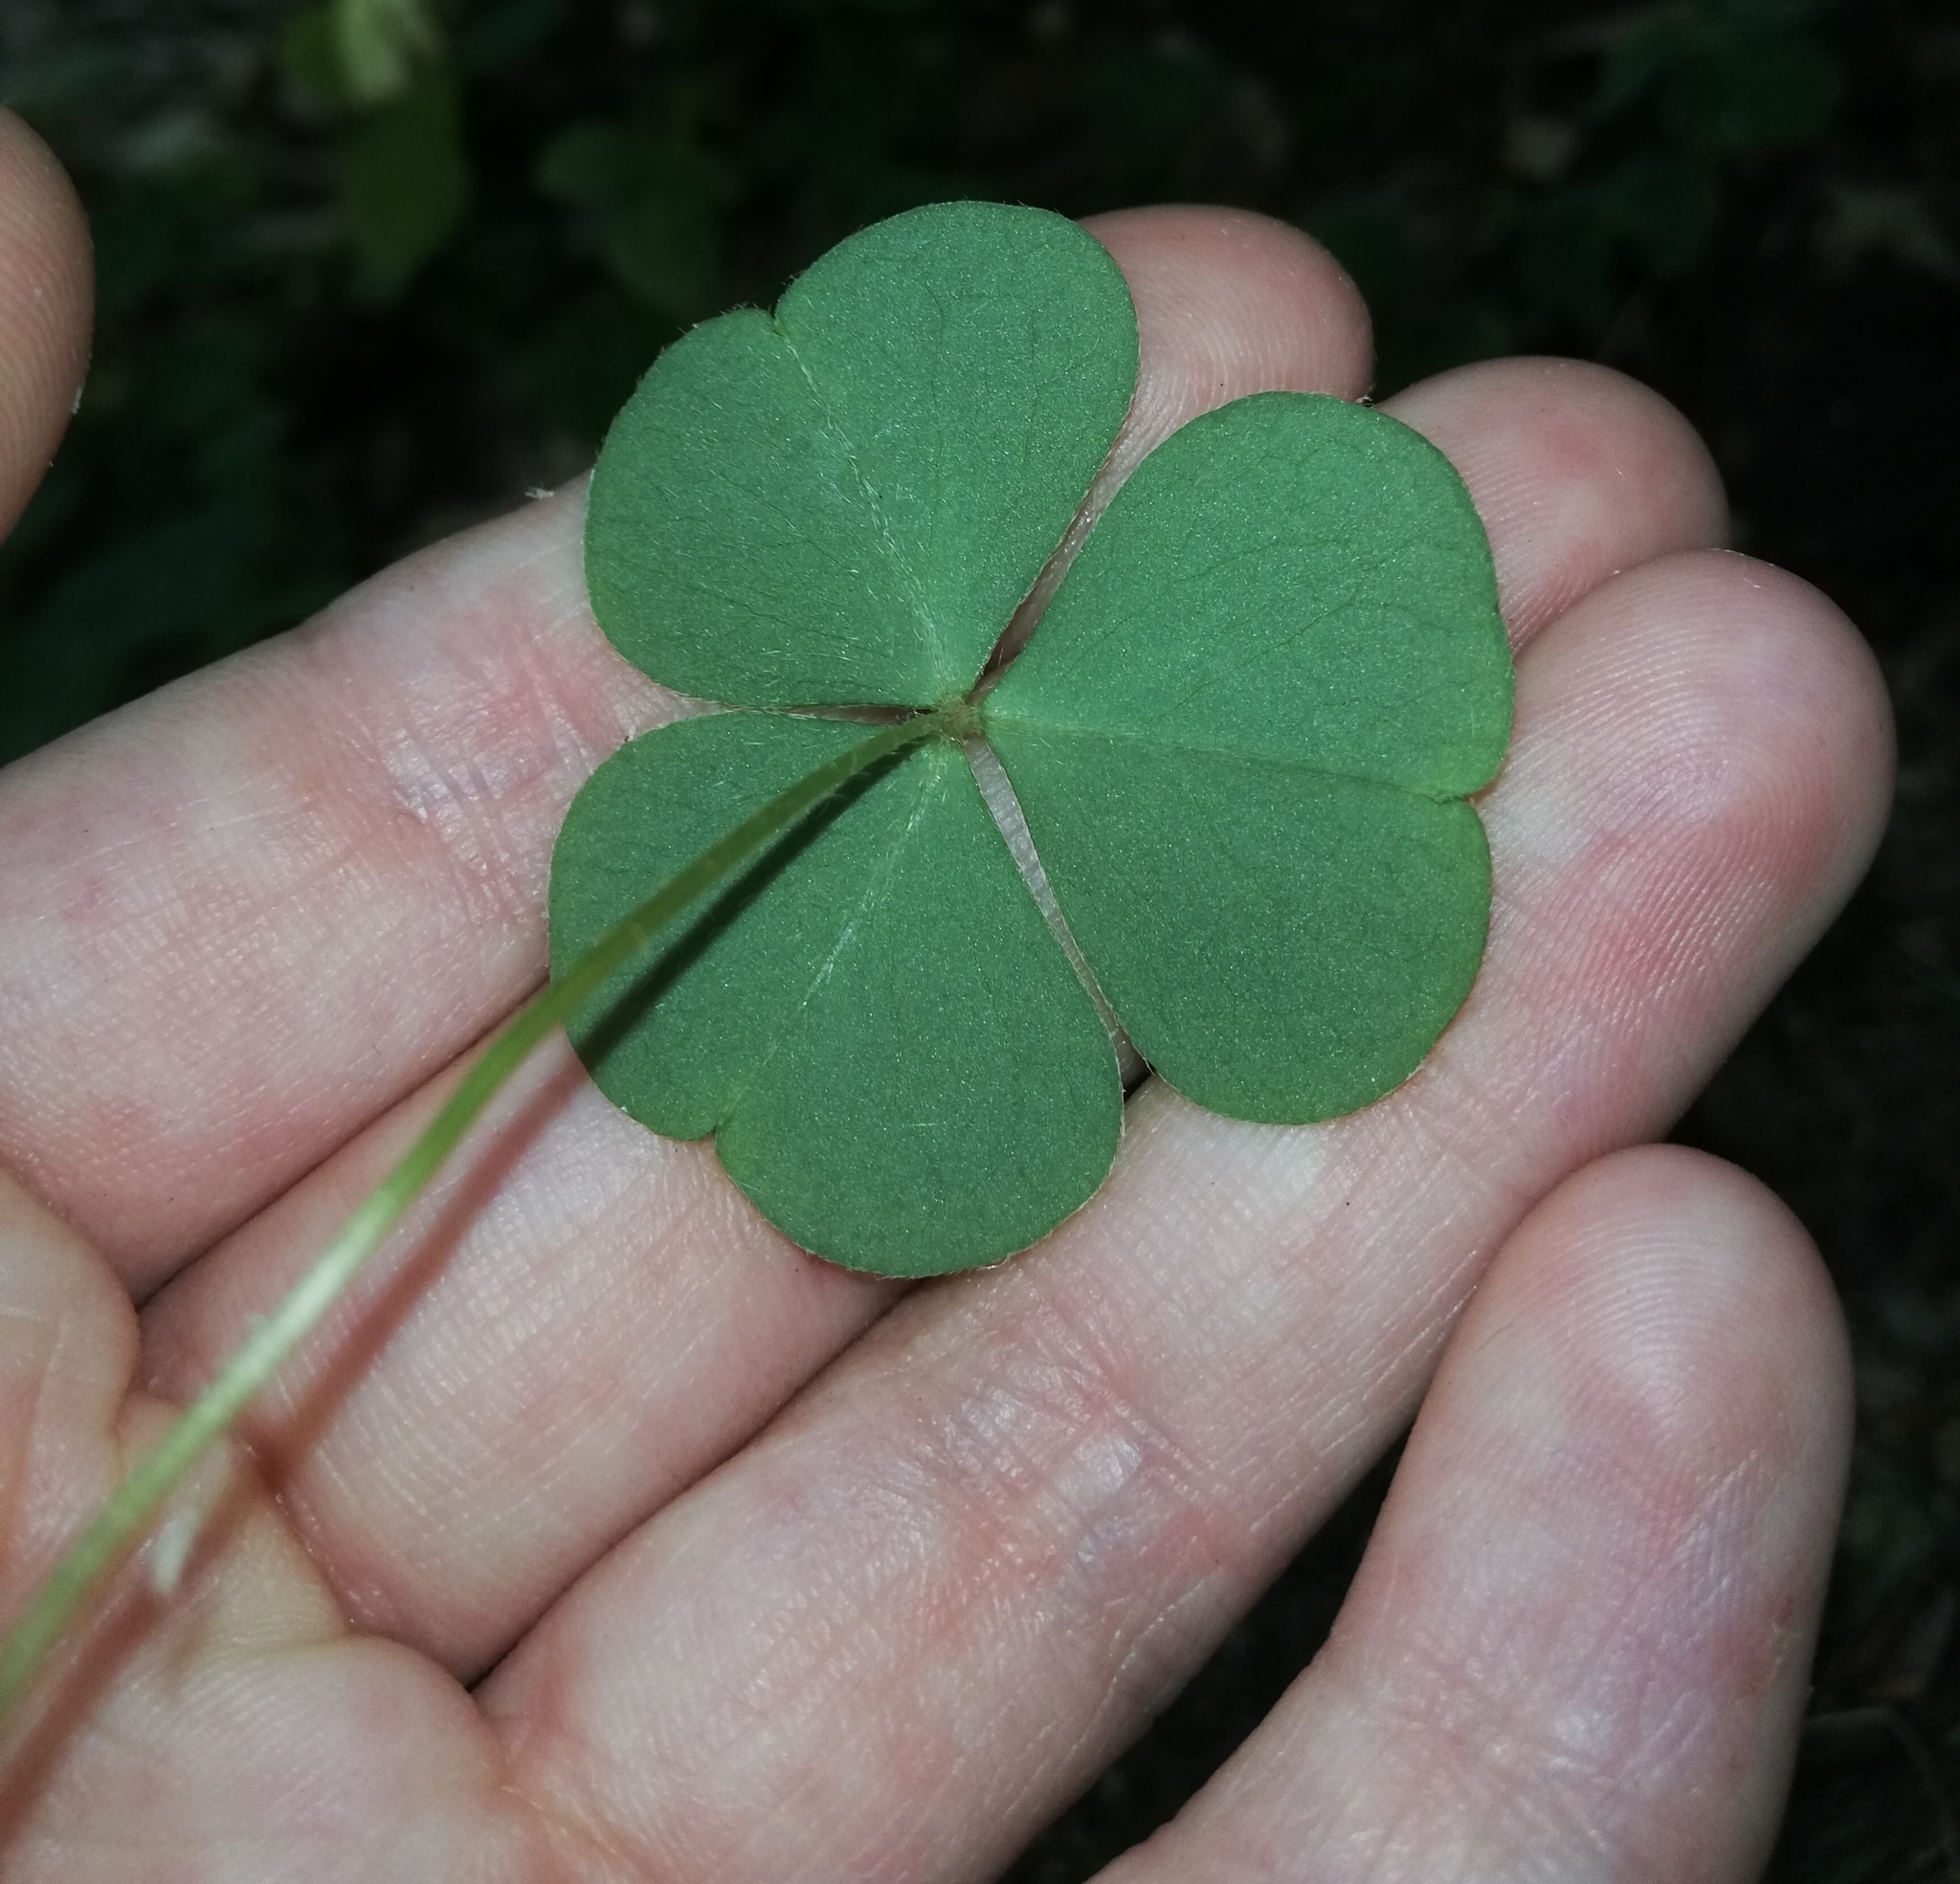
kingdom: Plantae
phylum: Tracheophyta
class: Magnoliopsida
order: Oxalidales
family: Oxalidaceae
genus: Oxalis
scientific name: Oxalis acetosella
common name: Wood-sorrel
